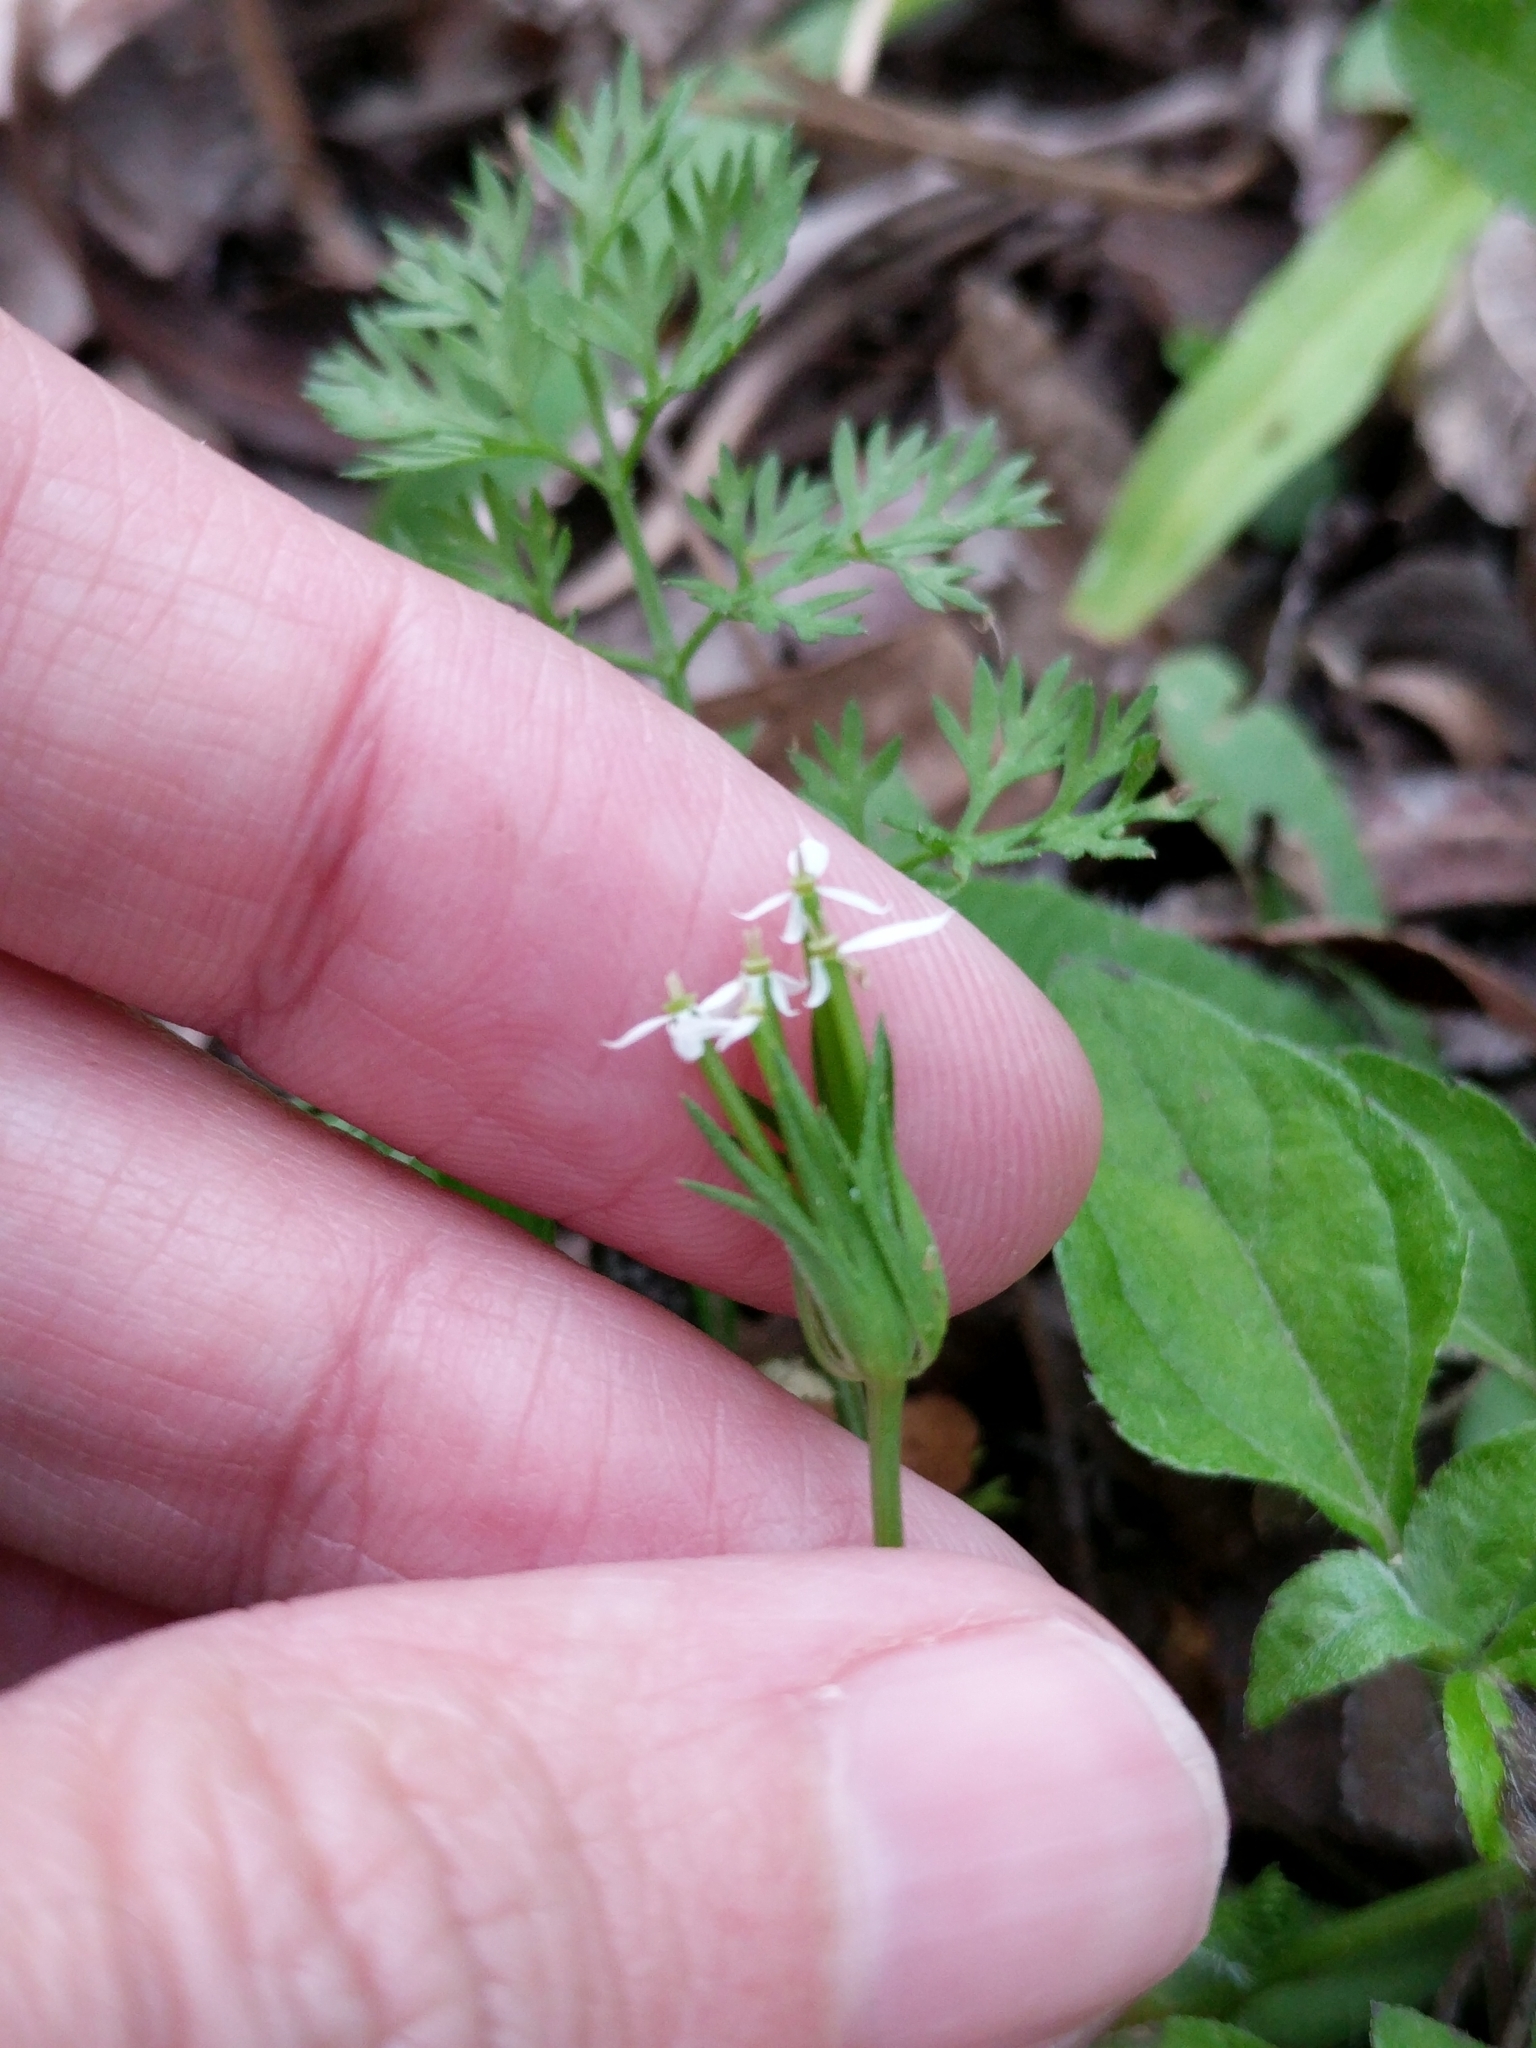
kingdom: Plantae
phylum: Tracheophyta
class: Magnoliopsida
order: Apiales
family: Apiaceae
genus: Scandix
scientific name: Scandix pecten-veneris
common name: Shepherd's-needle
